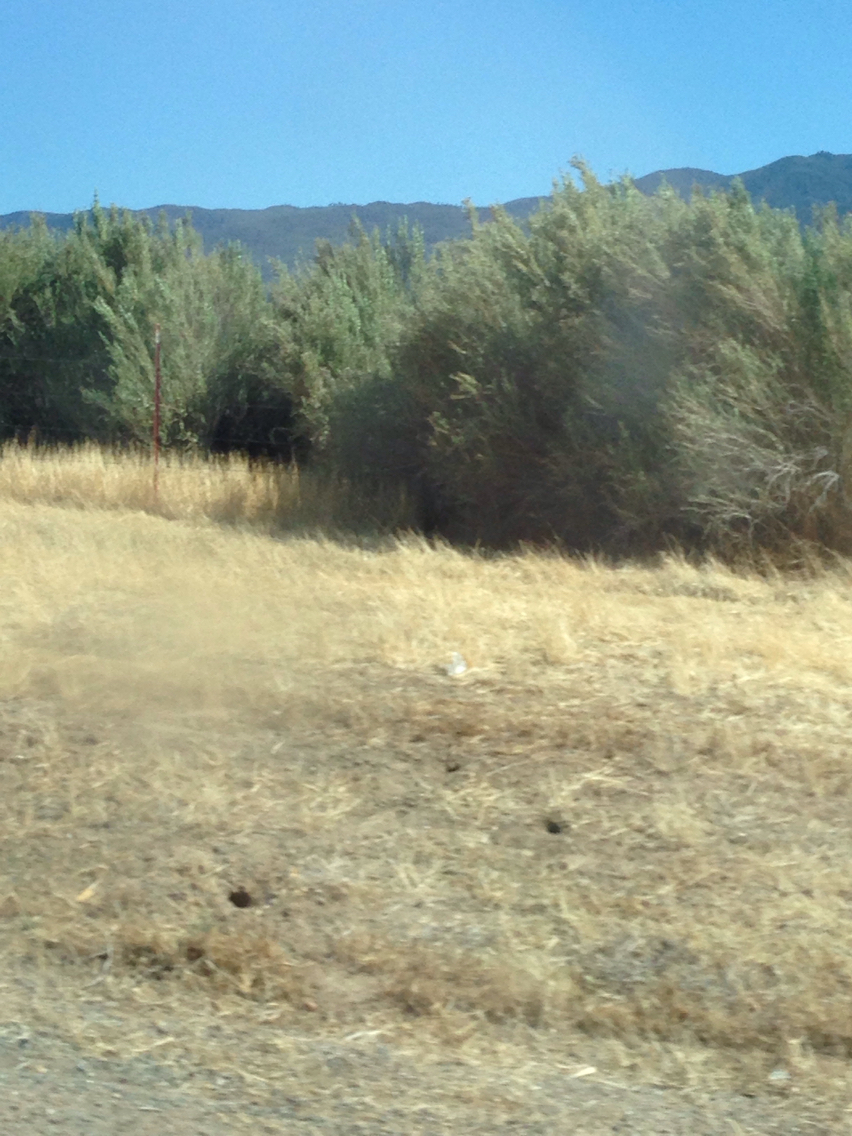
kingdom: Plantae
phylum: Tracheophyta
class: Magnoliopsida
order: Malpighiales
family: Salicaceae
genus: Salix
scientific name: Salix exigua
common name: Coyote willow
